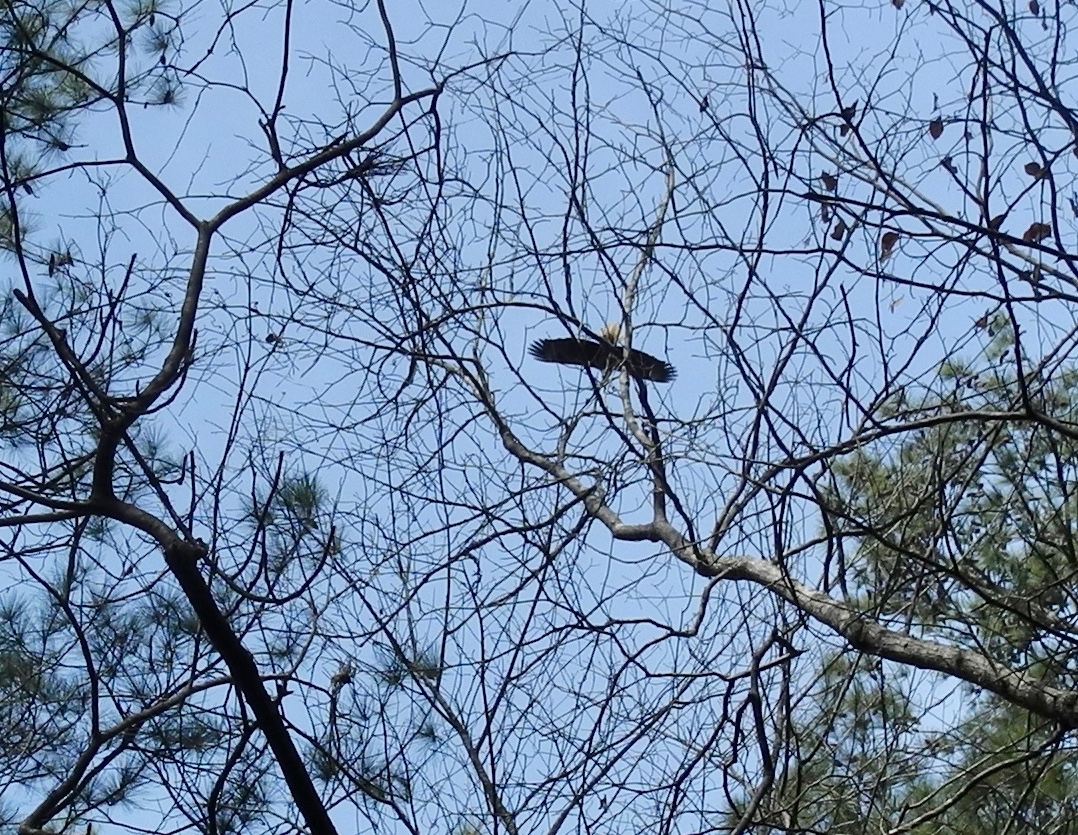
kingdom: Animalia
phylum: Chordata
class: Aves
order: Accipitriformes
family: Accipitridae
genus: Haliaeetus
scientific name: Haliaeetus leucocephalus
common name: Bald eagle
